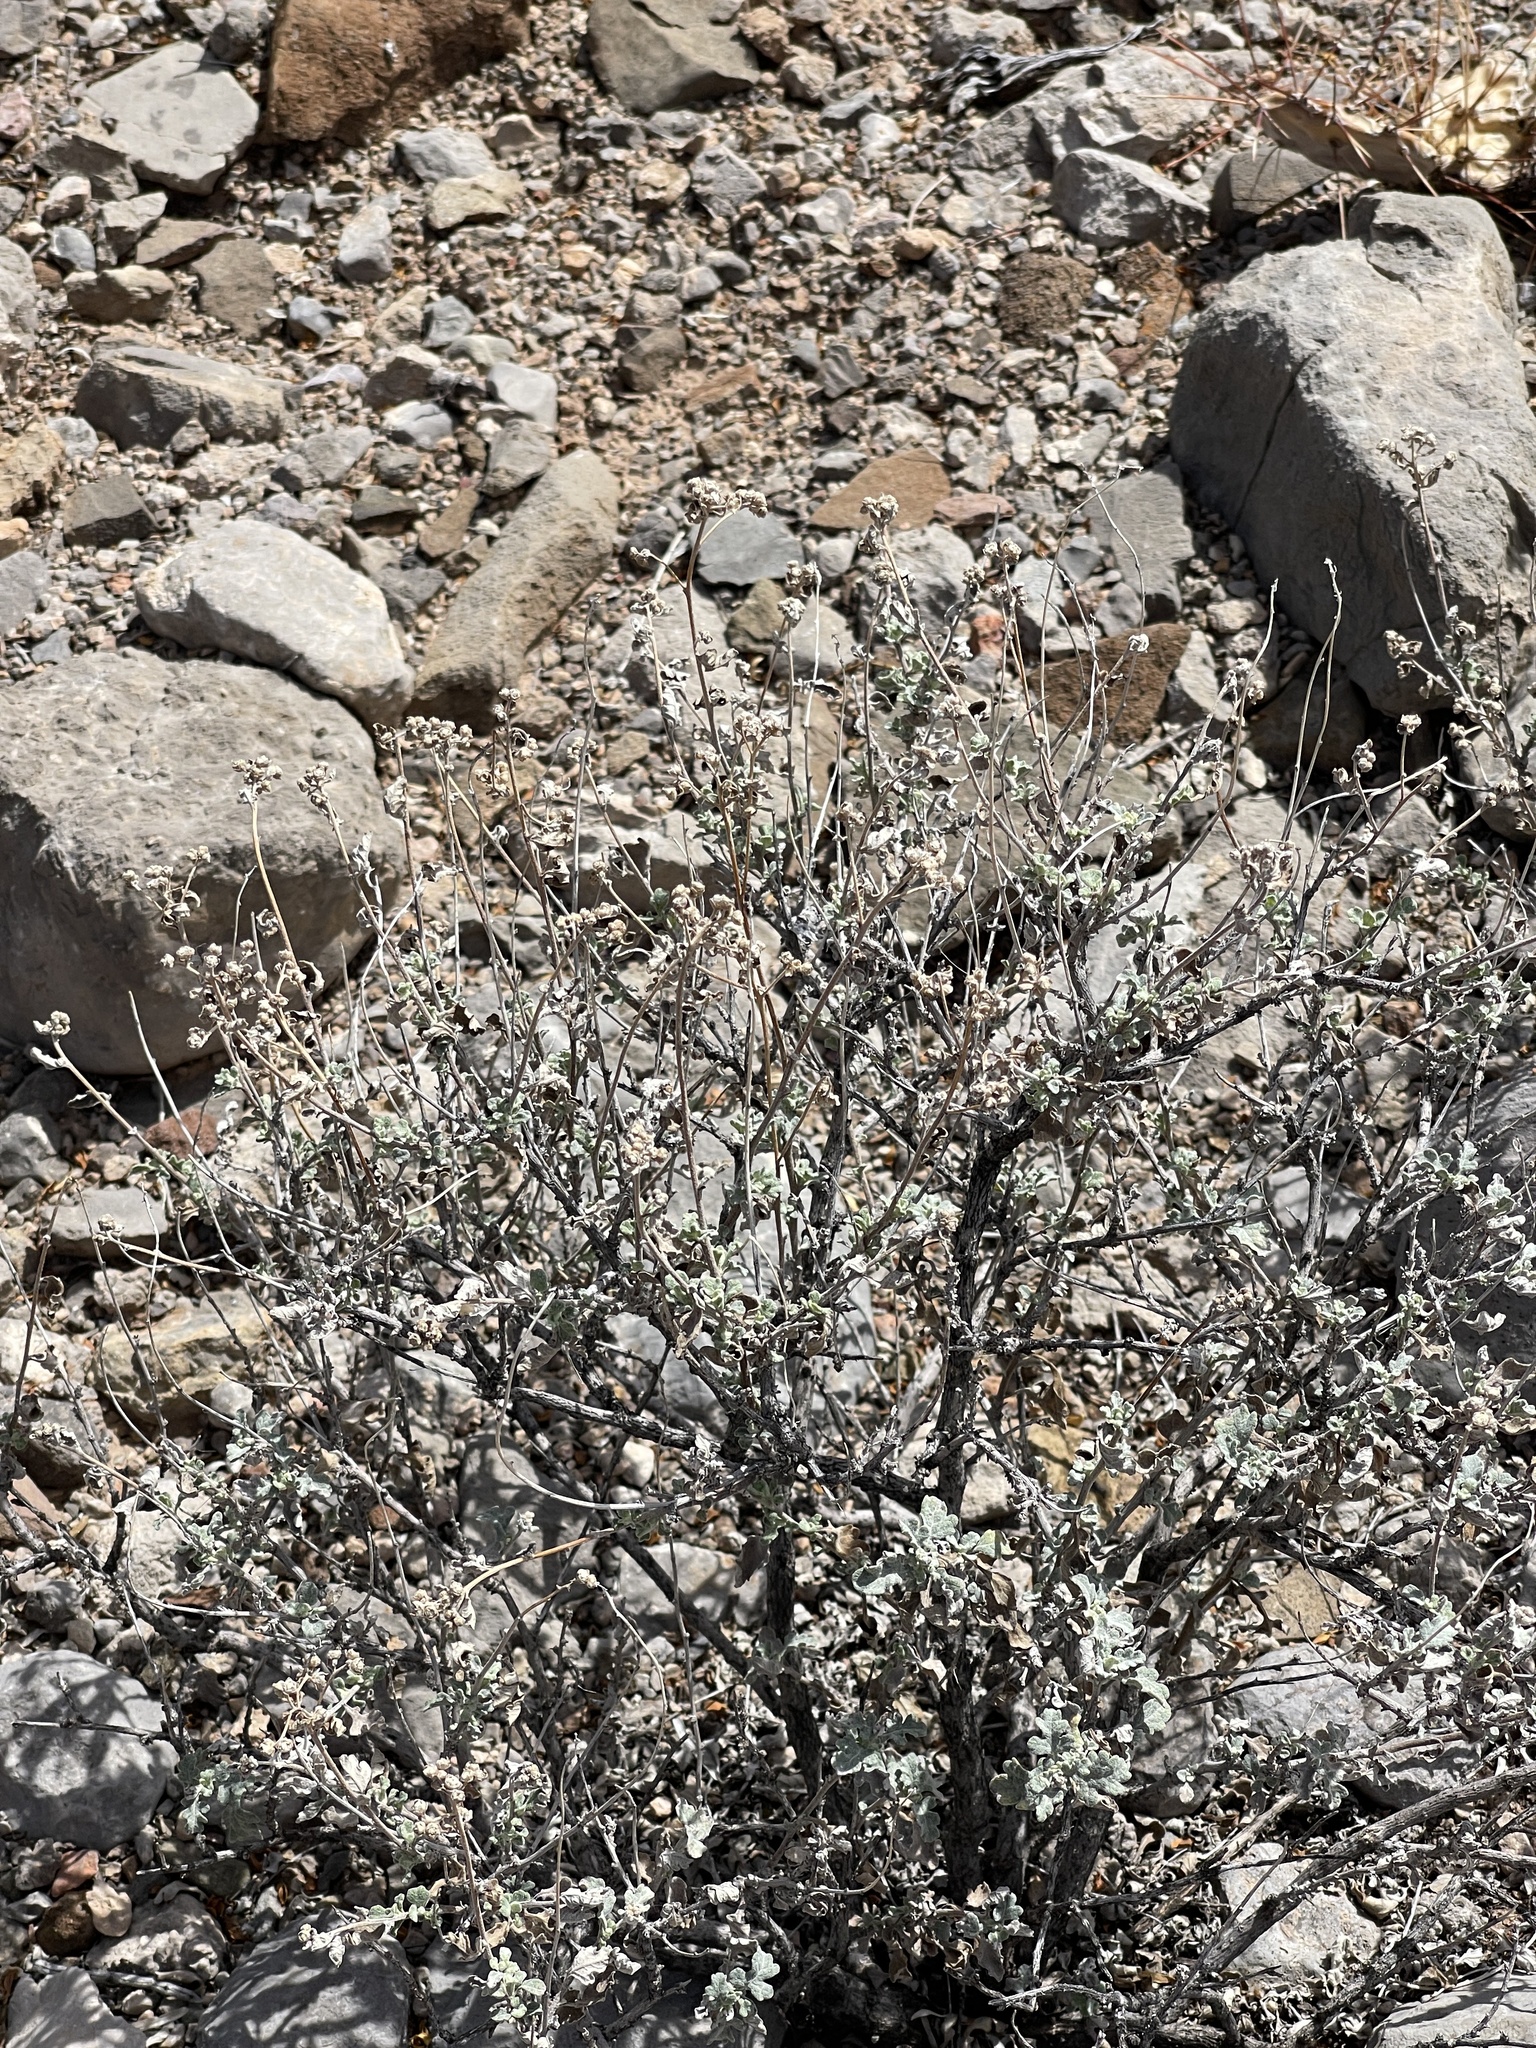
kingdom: Plantae
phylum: Tracheophyta
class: Magnoliopsida
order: Asterales
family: Asteraceae
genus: Parthenium
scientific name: Parthenium incanum
